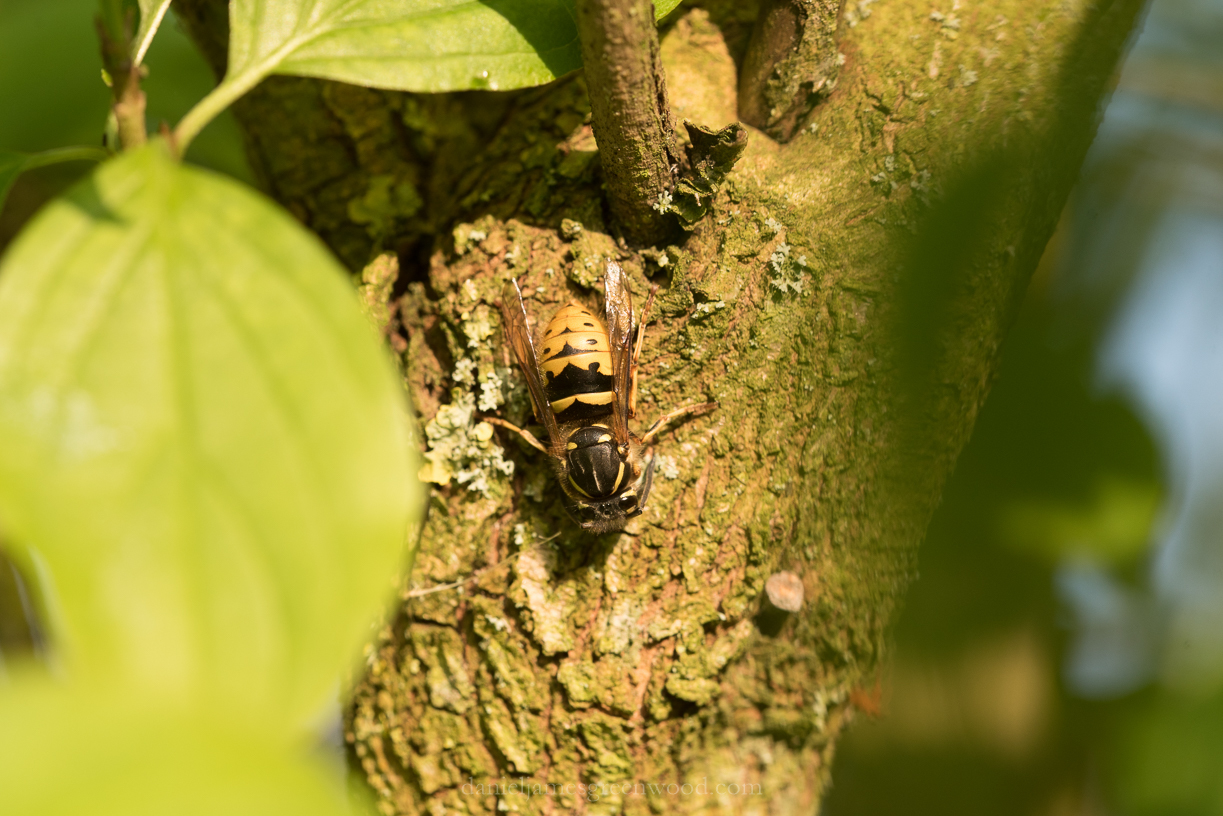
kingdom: Animalia
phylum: Arthropoda
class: Insecta
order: Hymenoptera
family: Vespidae
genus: Vespula
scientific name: Vespula vulgaris
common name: Common wasp
